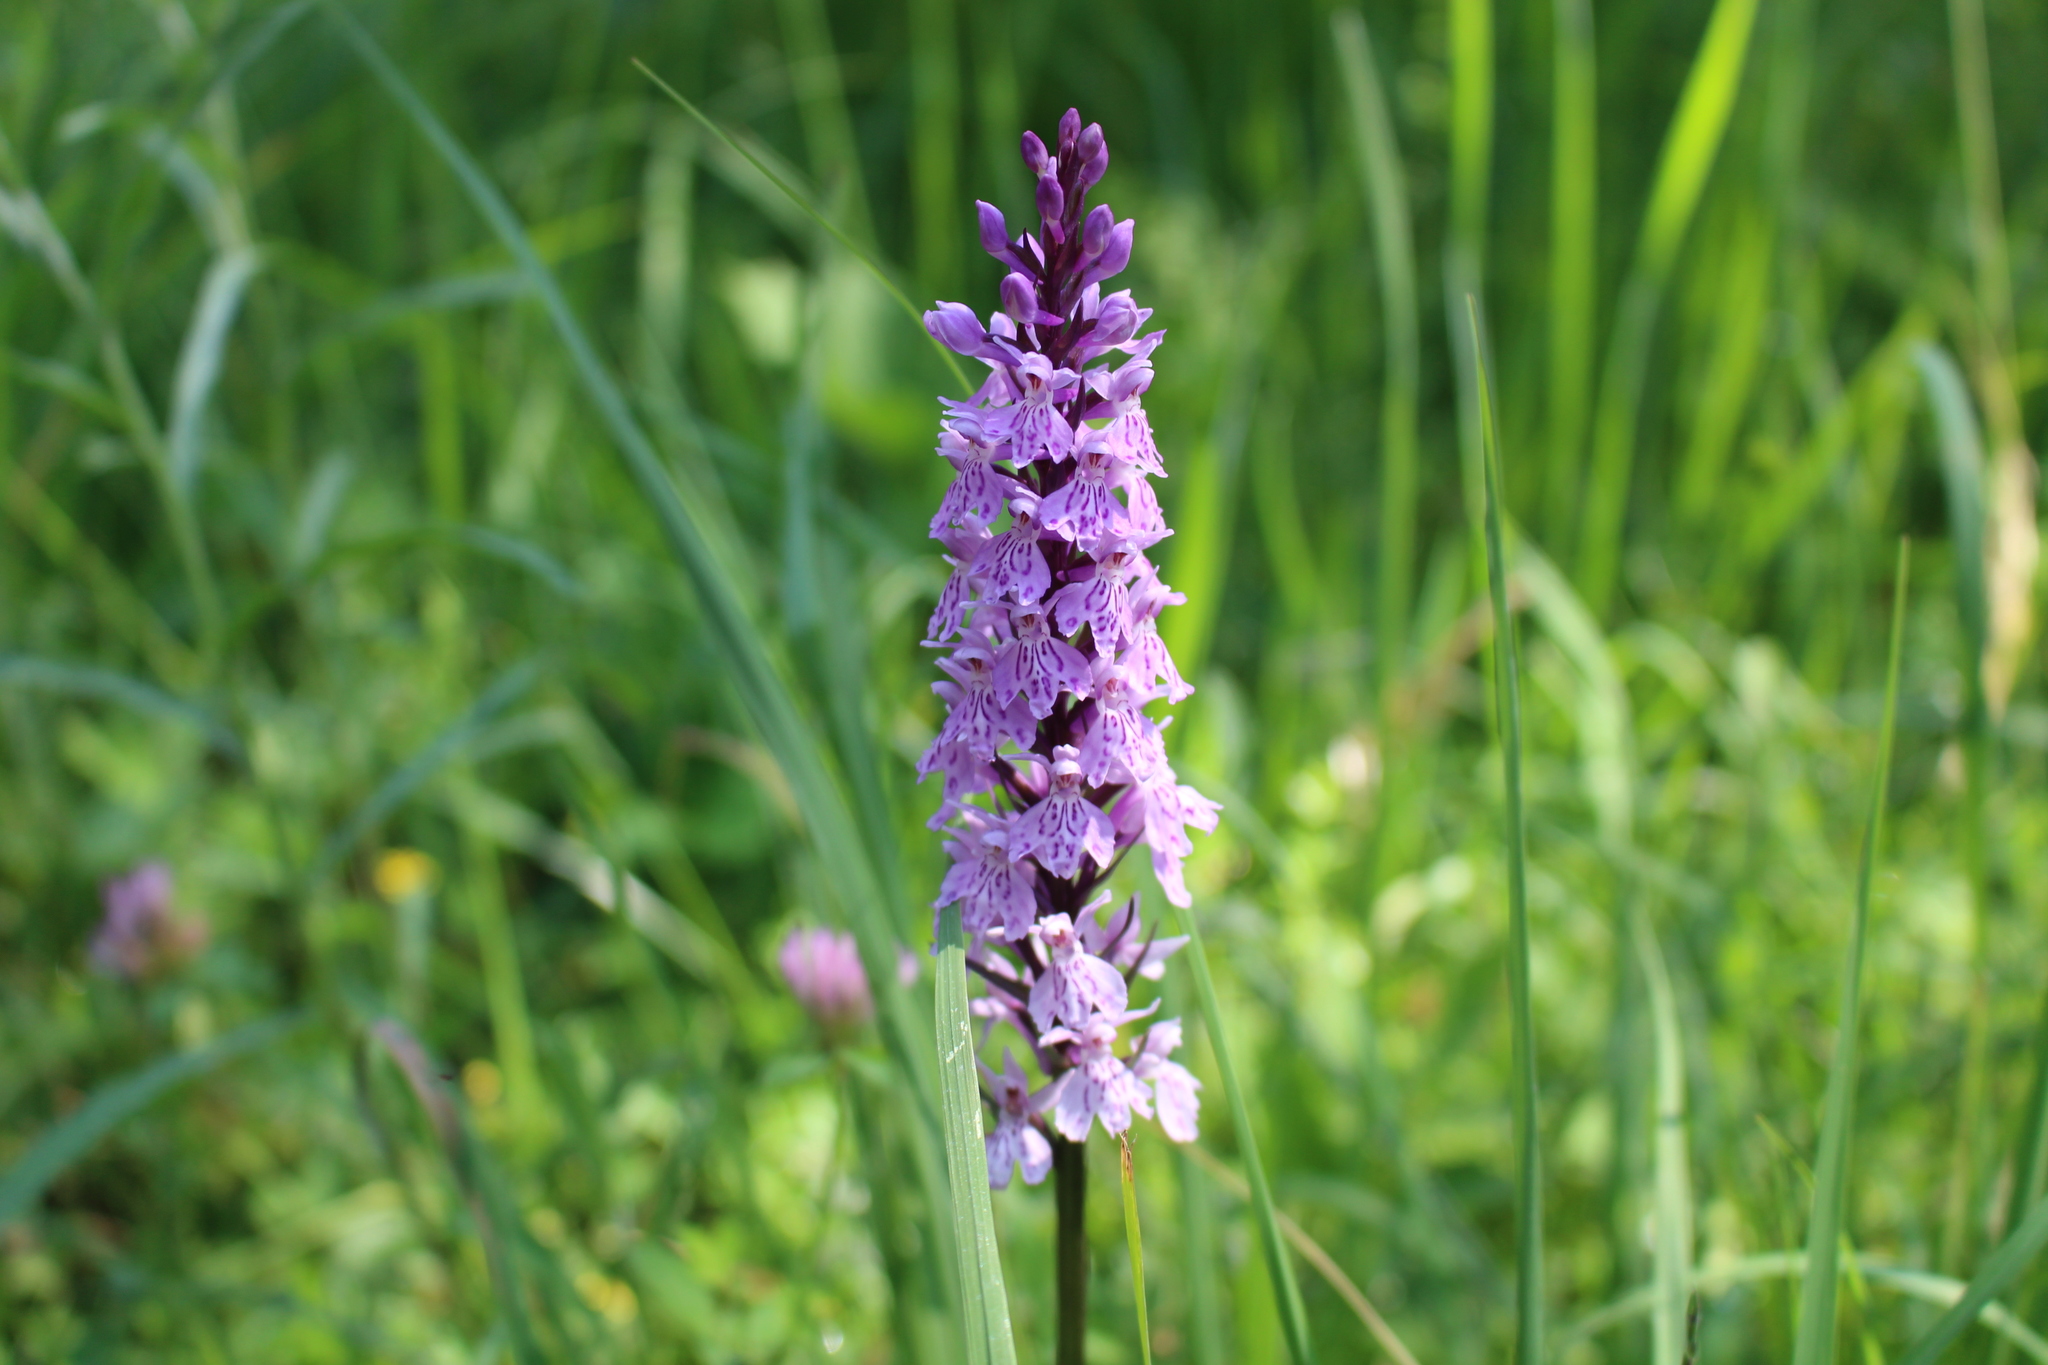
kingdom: Plantae
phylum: Tracheophyta
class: Liliopsida
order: Asparagales
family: Orchidaceae
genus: Dactylorhiza
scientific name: Dactylorhiza maculata
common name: Heath spotted-orchid
